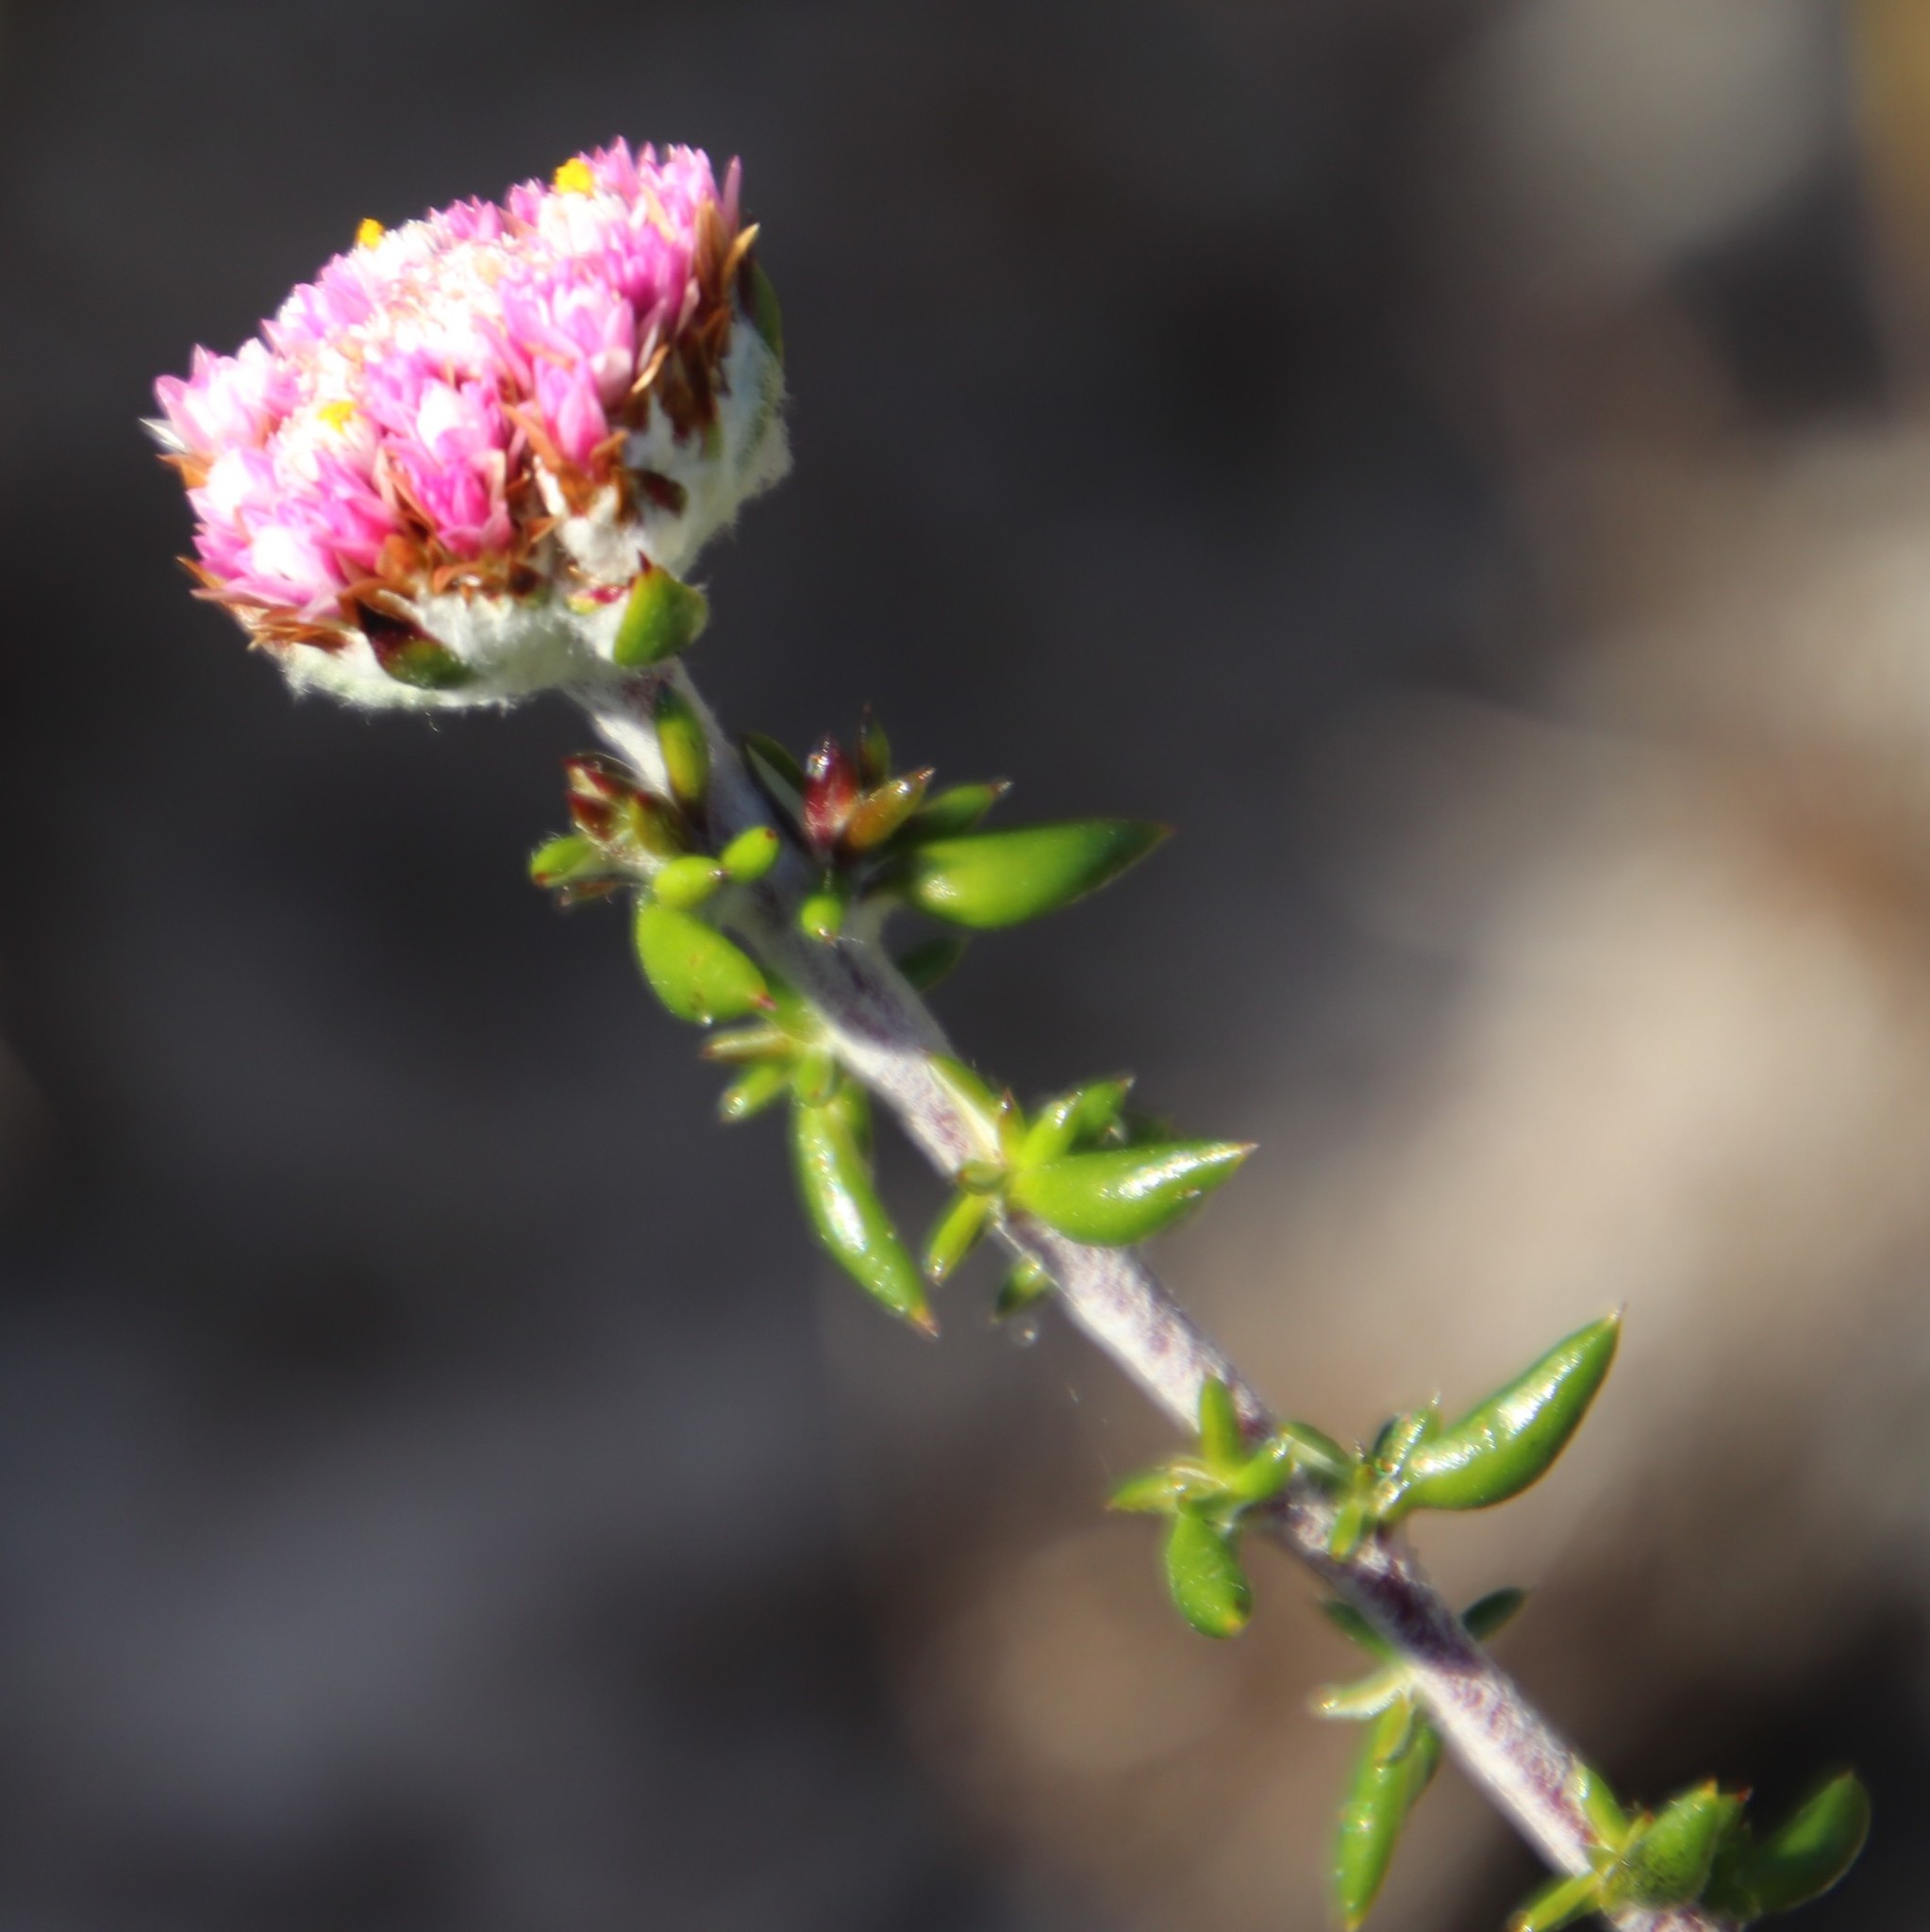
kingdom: Plantae
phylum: Tracheophyta
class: Magnoliopsida
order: Asterales
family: Asteraceae
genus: Metalasia
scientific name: Metalasia divergens
